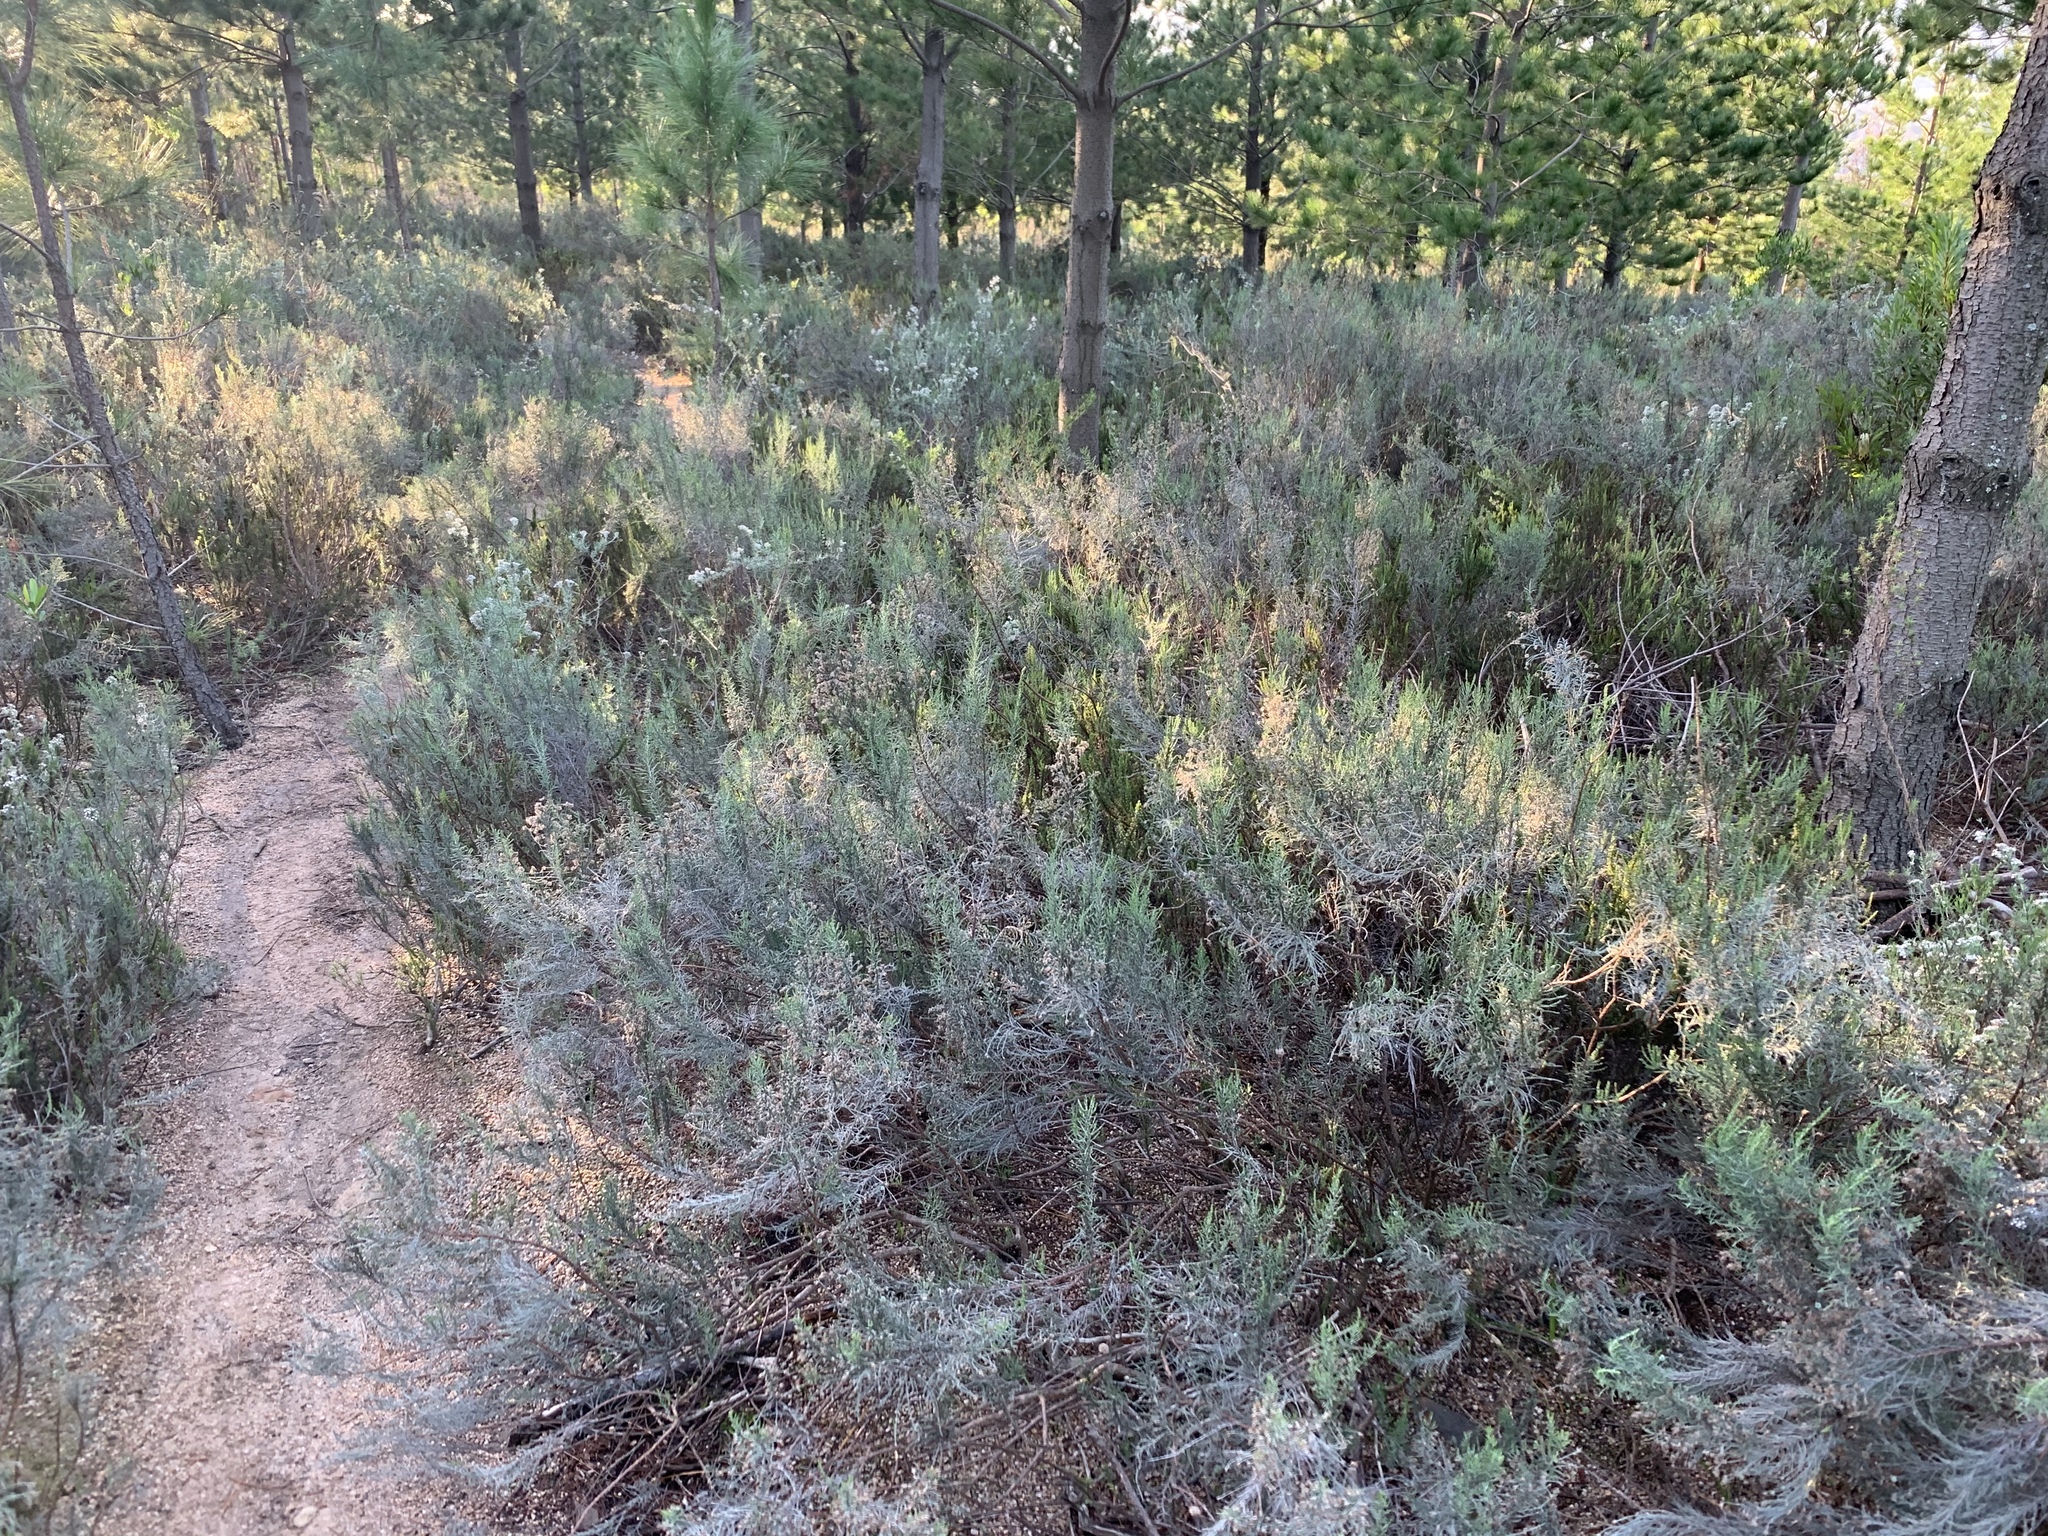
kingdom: Plantae
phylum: Tracheophyta
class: Magnoliopsida
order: Asterales
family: Asteraceae
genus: Dicerothamnus
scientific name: Dicerothamnus rhinocerotis
